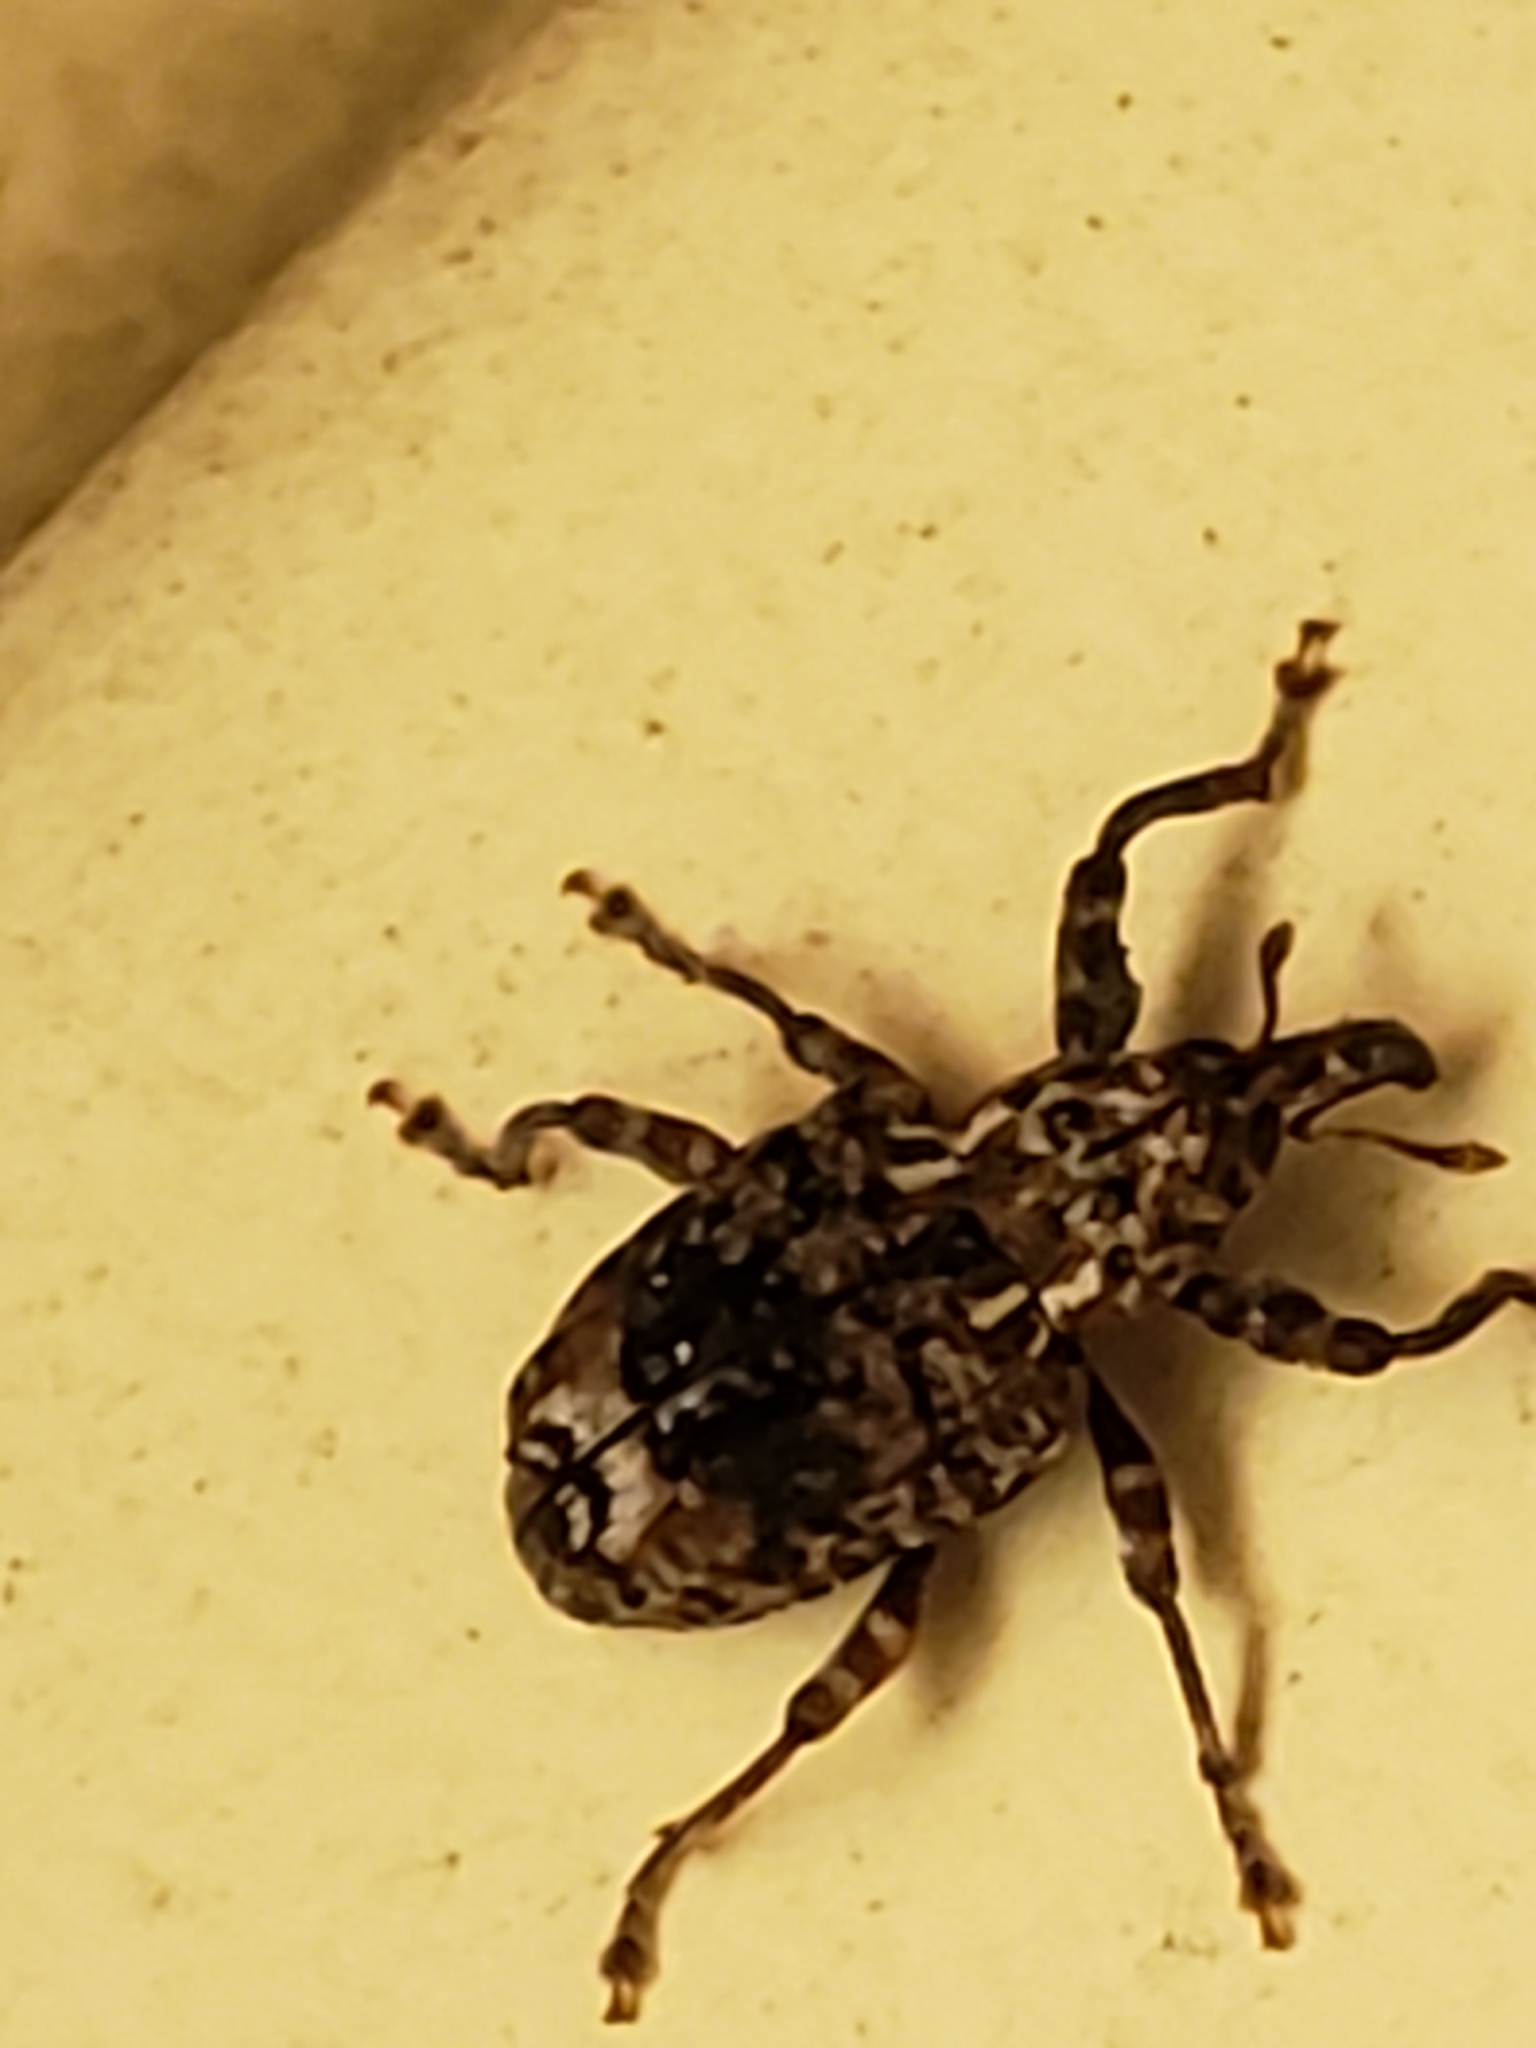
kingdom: Animalia
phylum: Arthropoda
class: Insecta
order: Coleoptera
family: Curculionidae
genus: Conotrachelus
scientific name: Conotrachelus nenuphar
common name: Plum curculio
